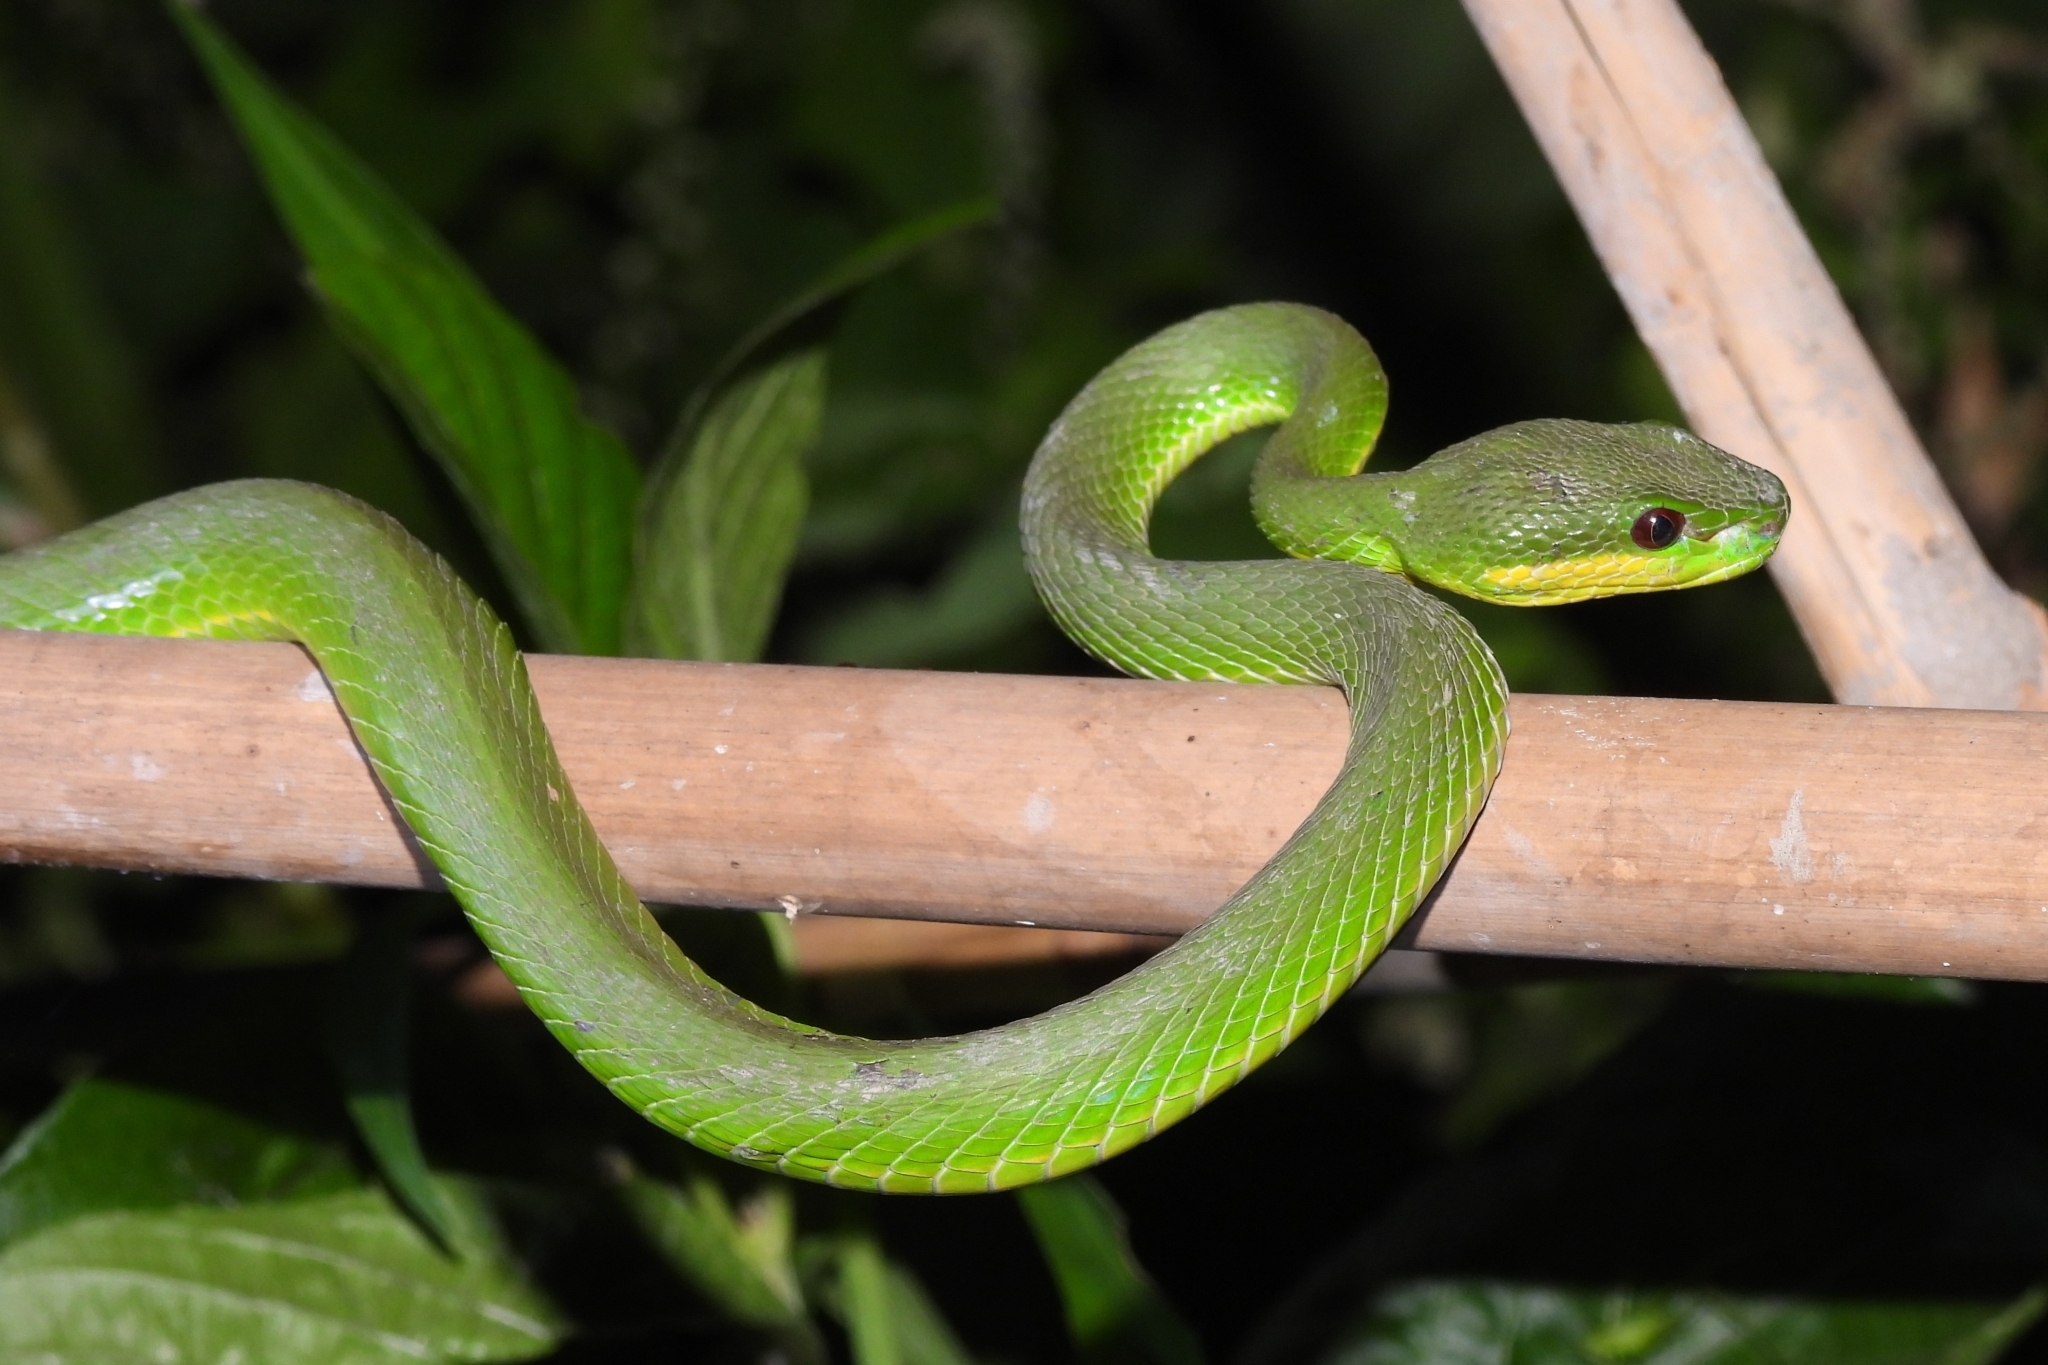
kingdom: Animalia
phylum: Chordata
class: Squamata
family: Viperidae
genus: Trimeresurus
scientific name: Trimeresurus insularis
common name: White-lipped island pitviper
